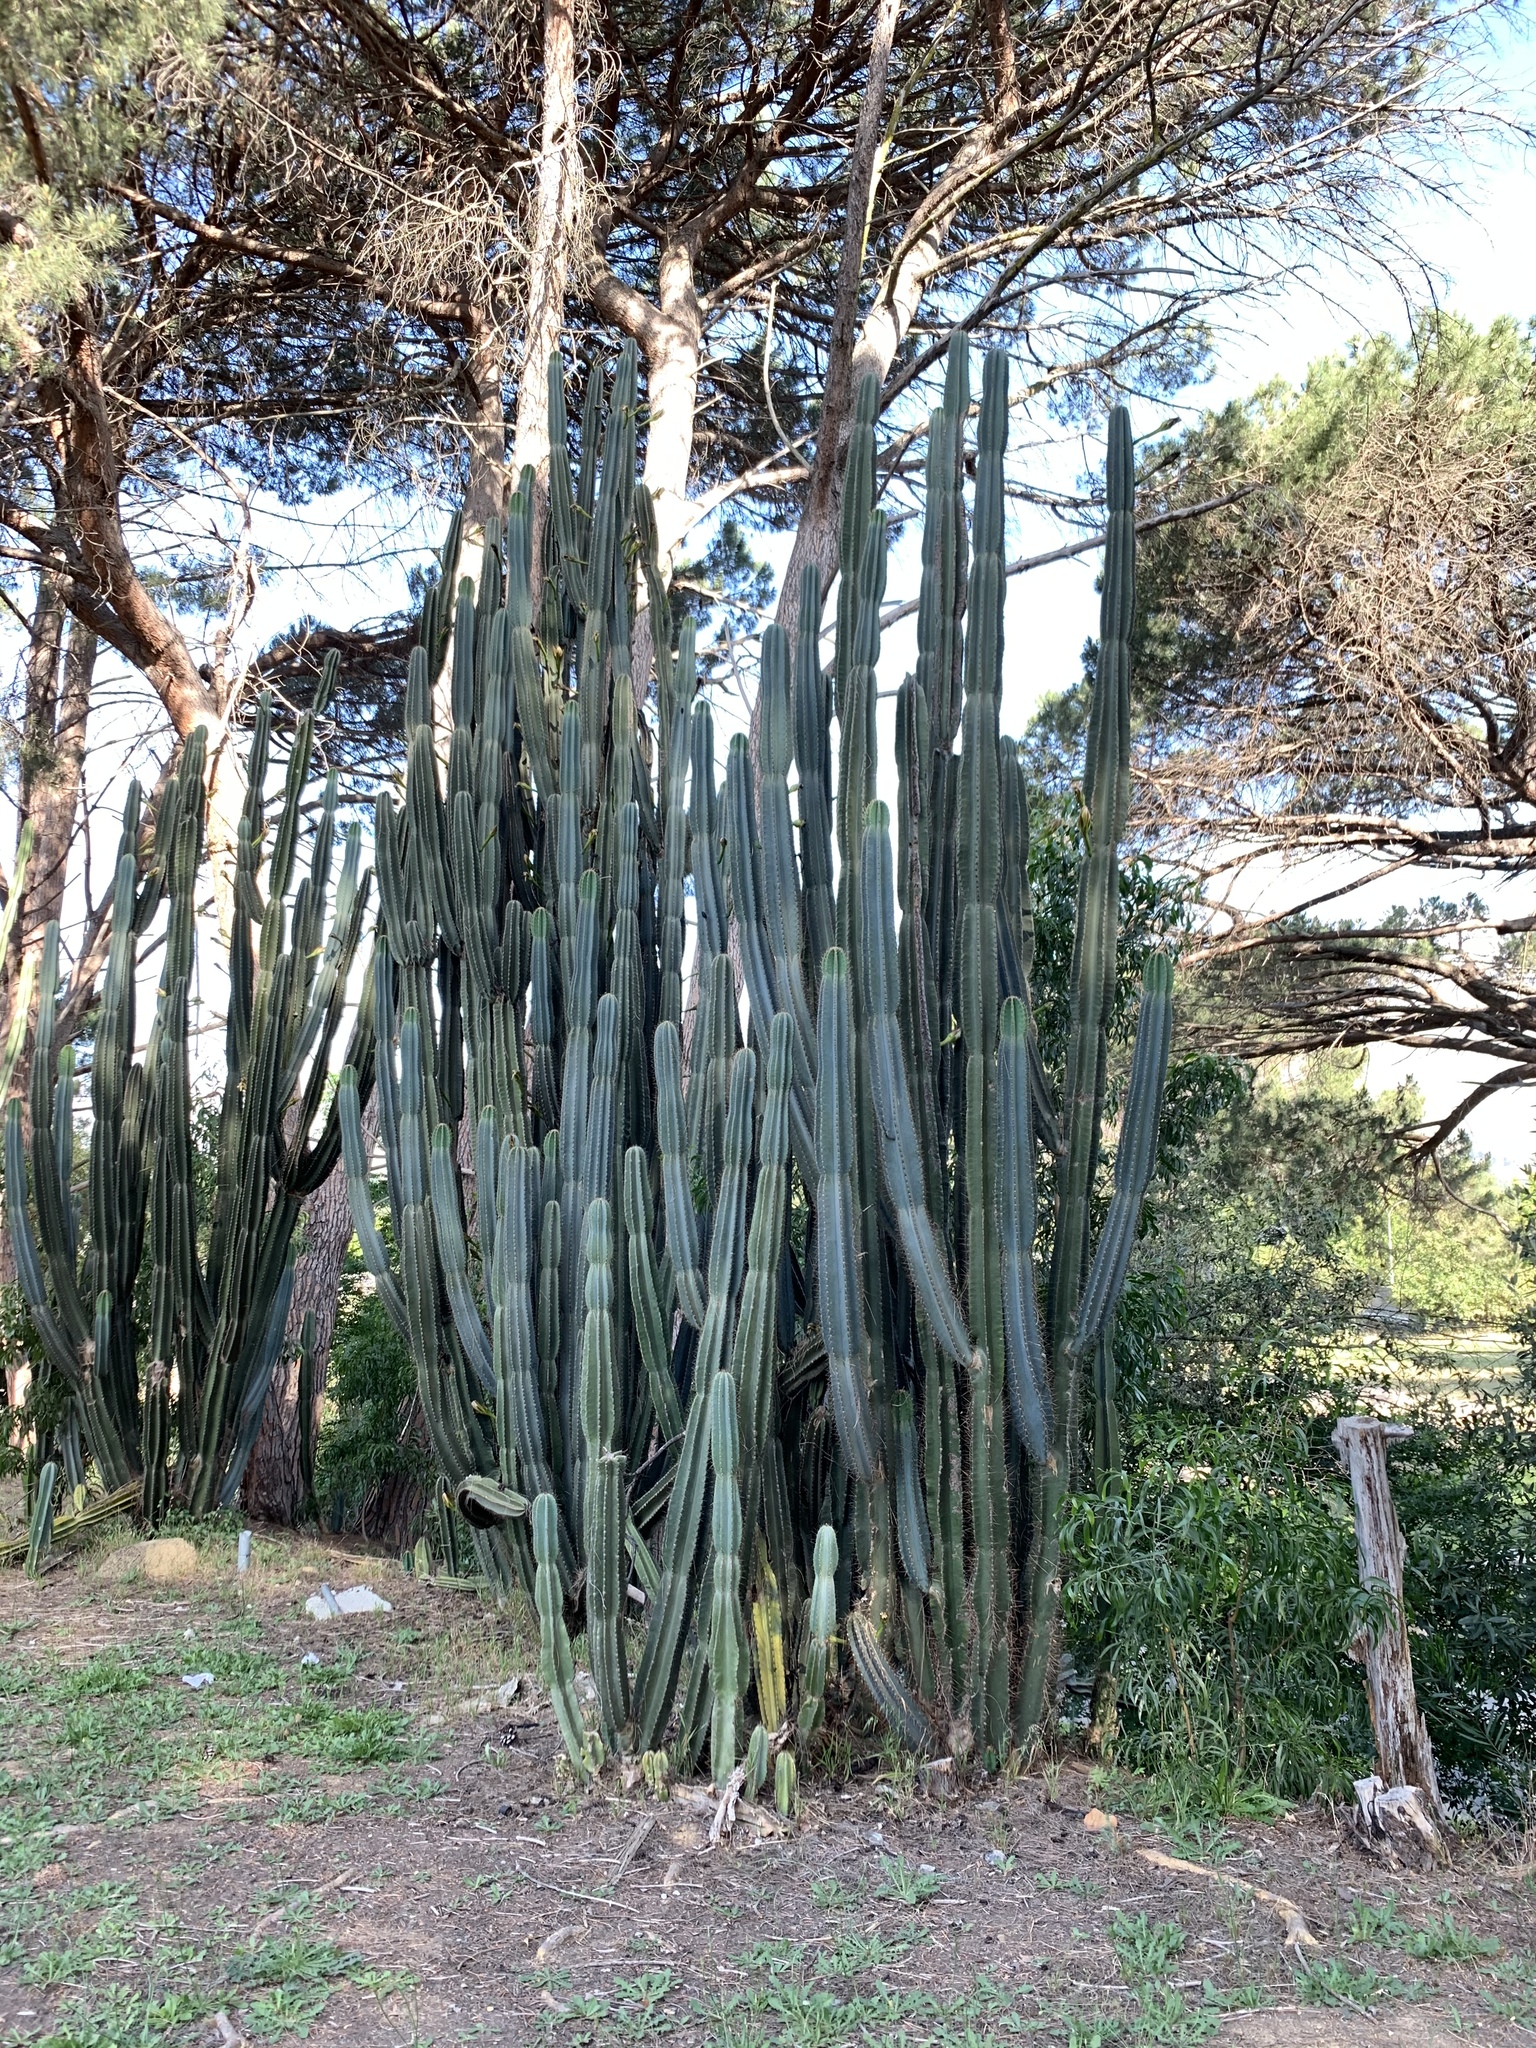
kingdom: Plantae
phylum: Tracheophyta
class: Magnoliopsida
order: Caryophyllales
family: Cactaceae
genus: Cereus
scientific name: Cereus jamacaru
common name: Queen-of-the-night
